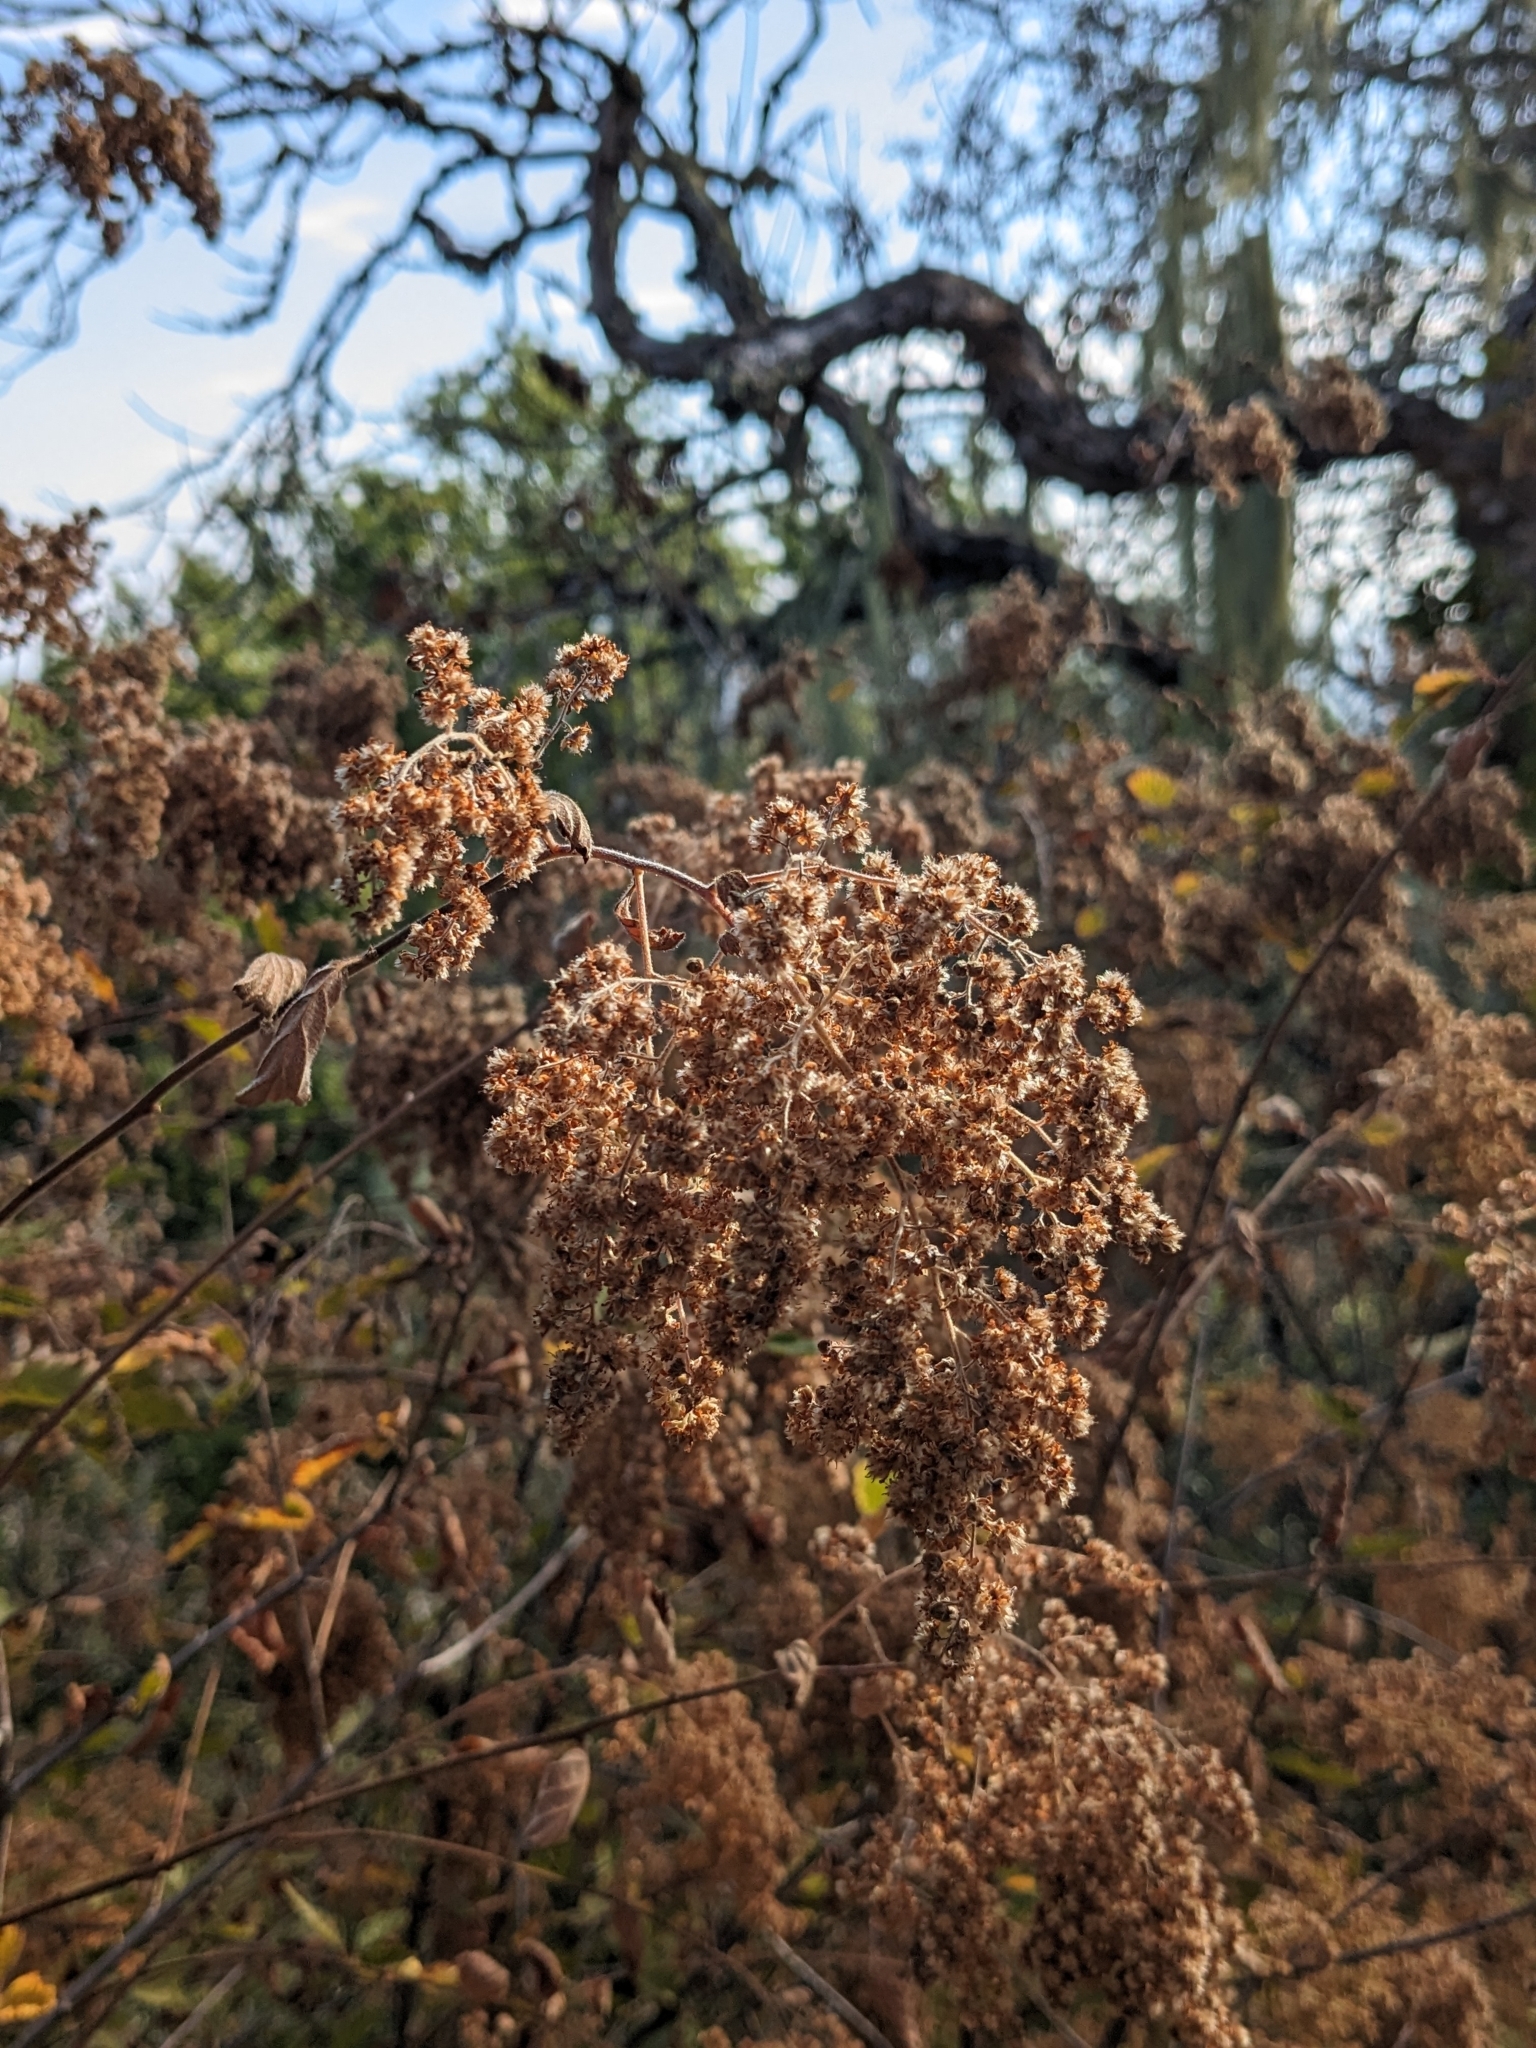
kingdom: Plantae
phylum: Tracheophyta
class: Magnoliopsida
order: Rosales
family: Rosaceae
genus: Holodiscus
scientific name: Holodiscus discolor
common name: Oceanspray
